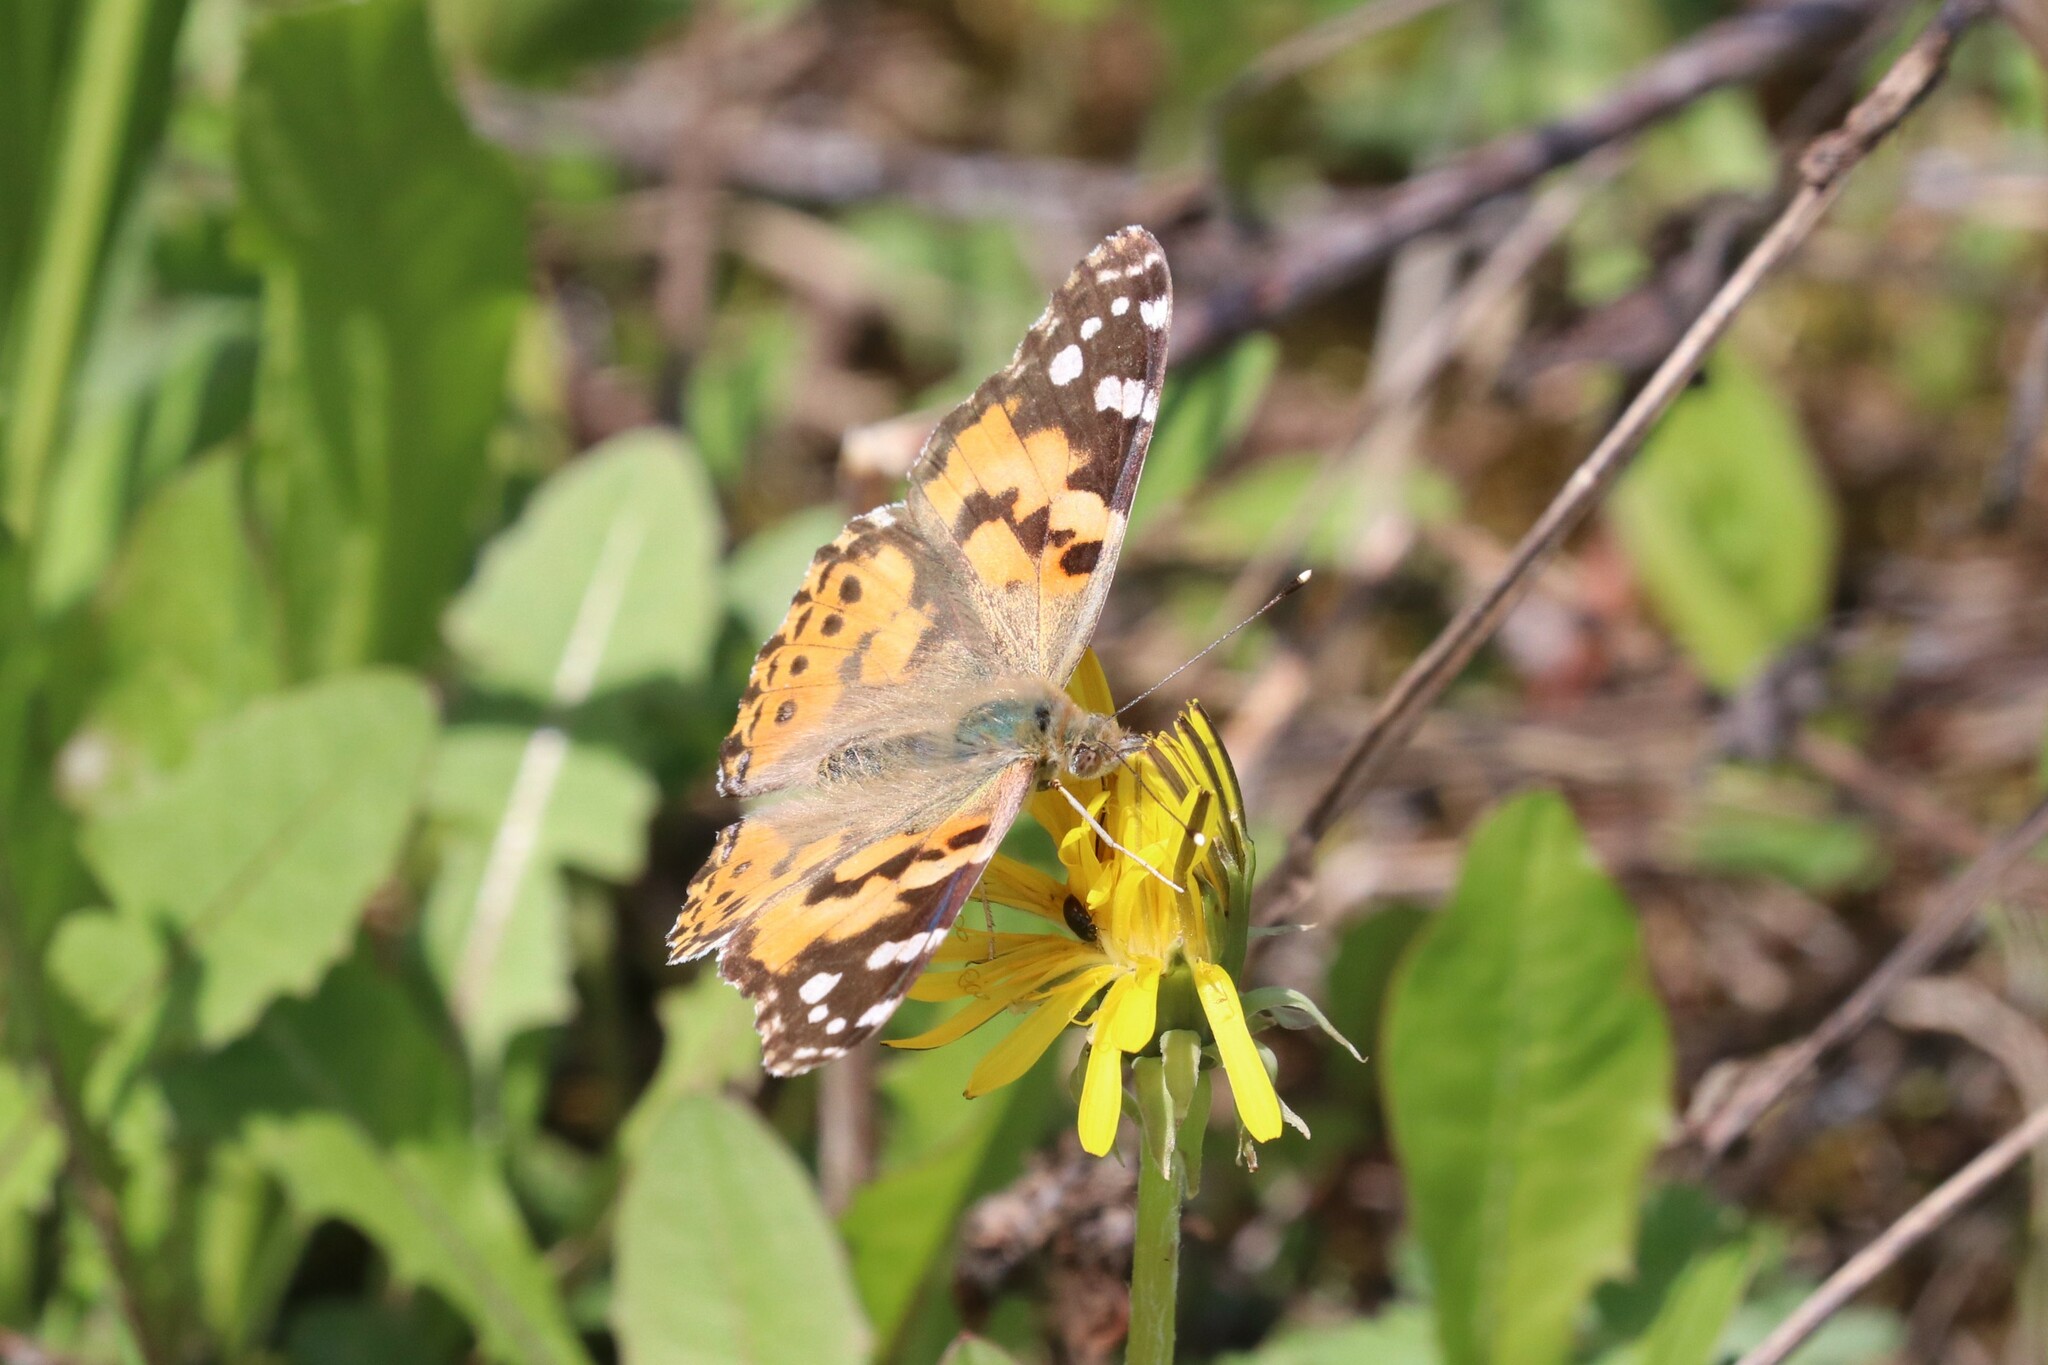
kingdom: Animalia
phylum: Arthropoda
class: Insecta
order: Lepidoptera
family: Nymphalidae
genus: Vanessa
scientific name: Vanessa cardui
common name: Painted lady
